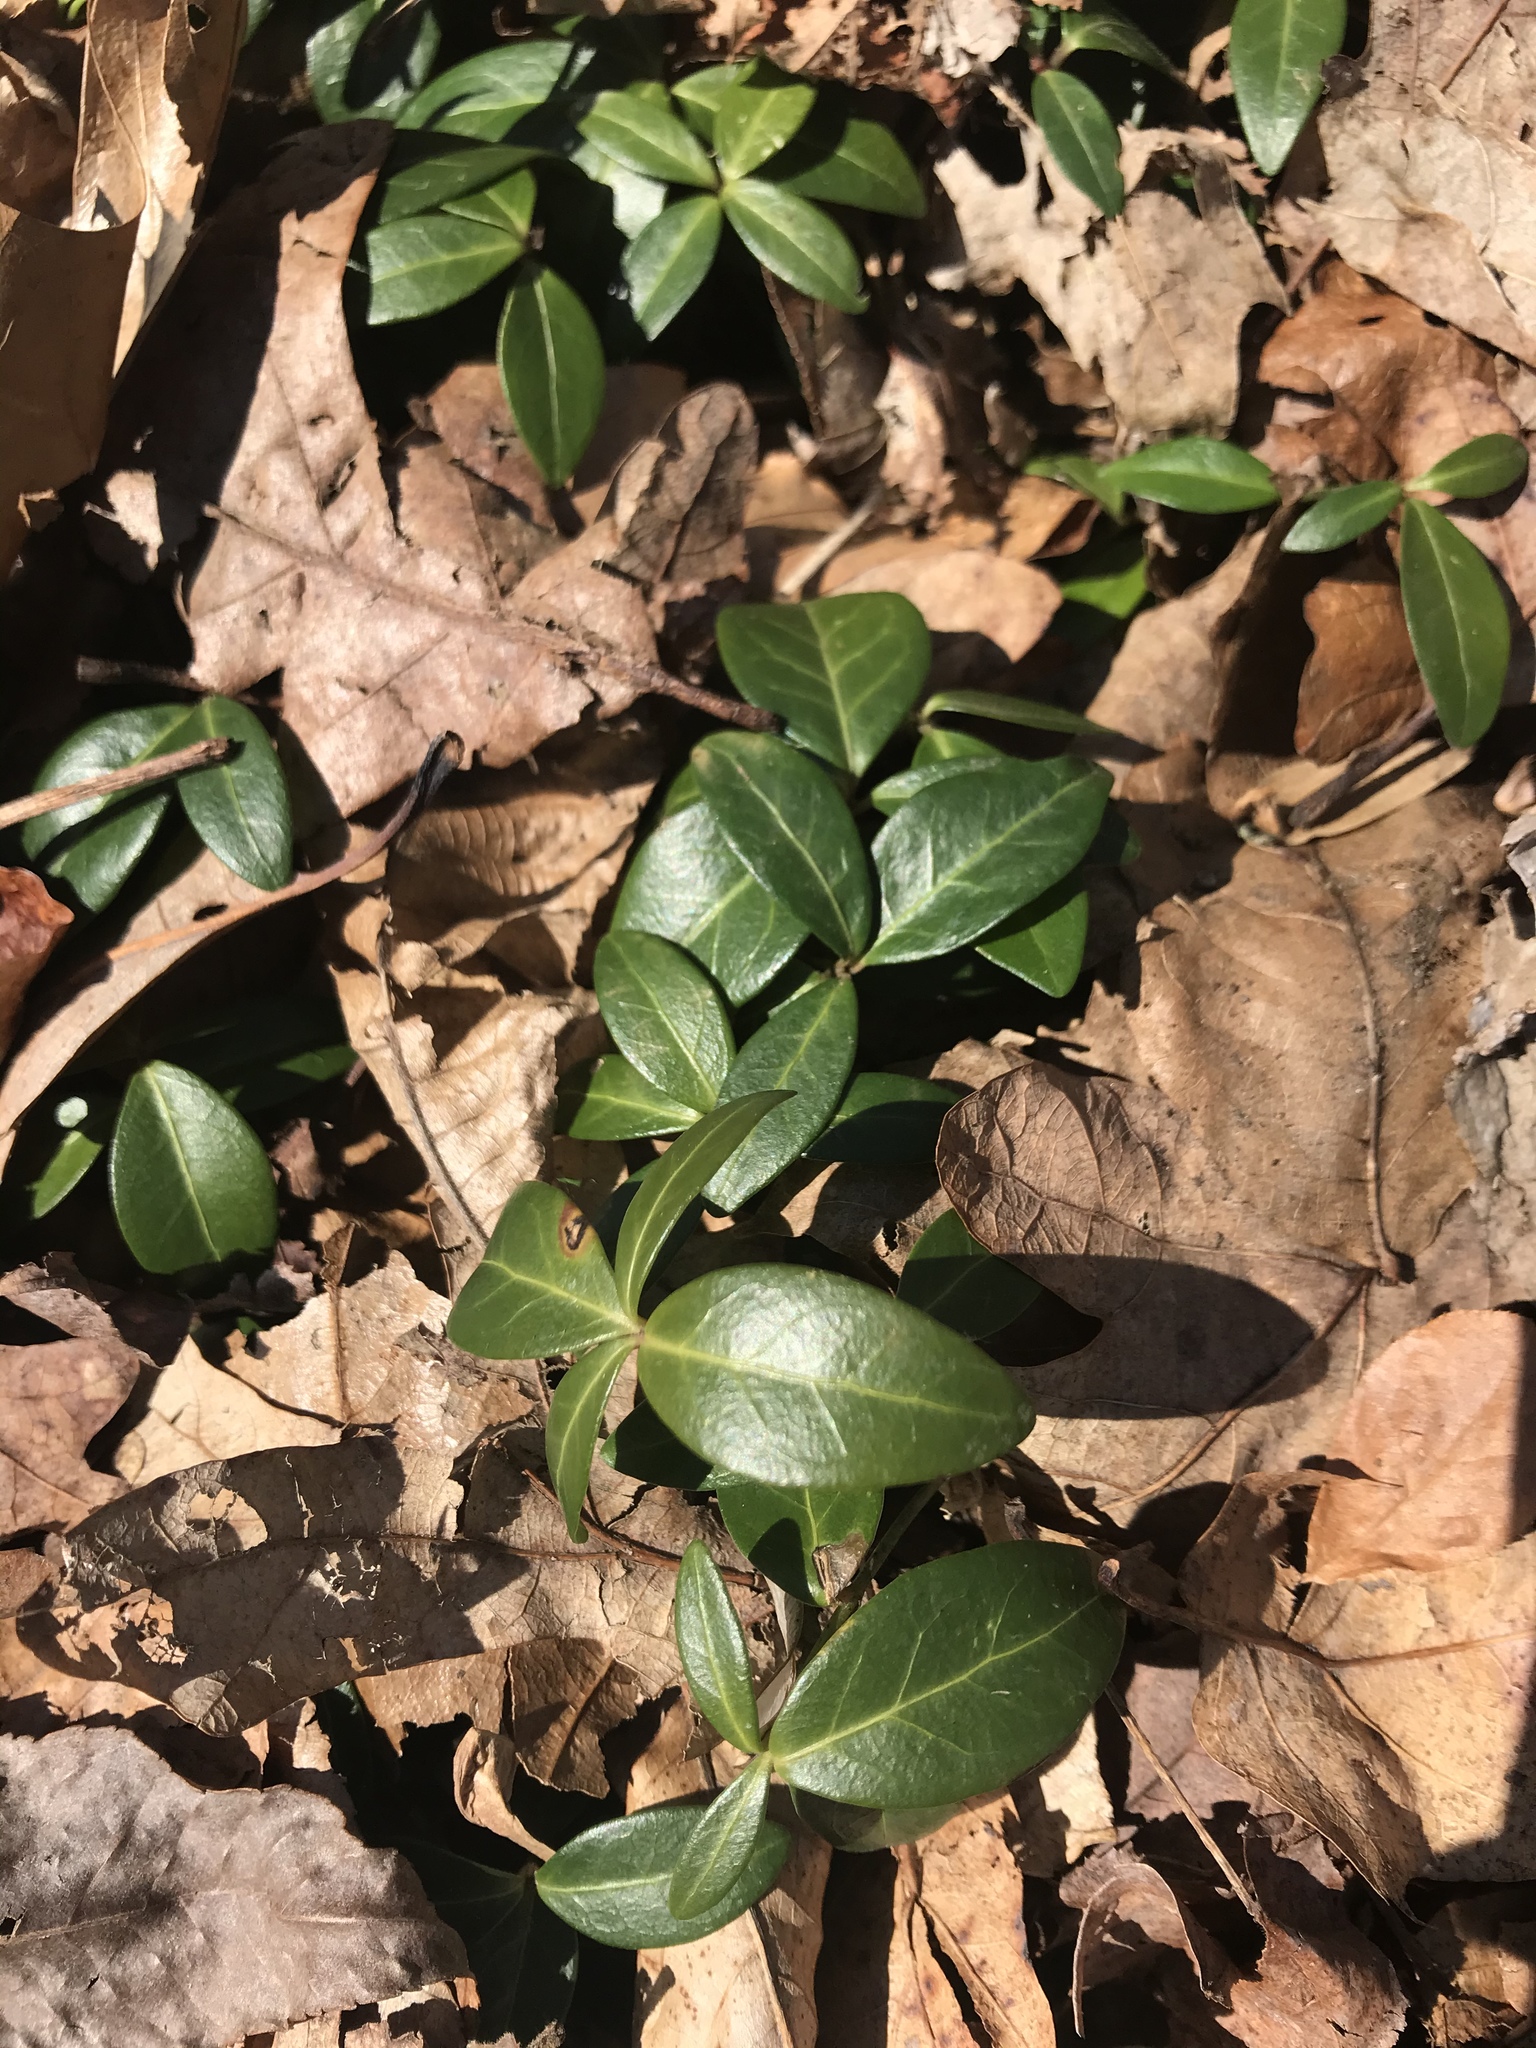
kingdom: Plantae
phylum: Tracheophyta
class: Magnoliopsida
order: Gentianales
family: Apocynaceae
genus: Vinca
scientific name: Vinca minor
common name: Lesser periwinkle
